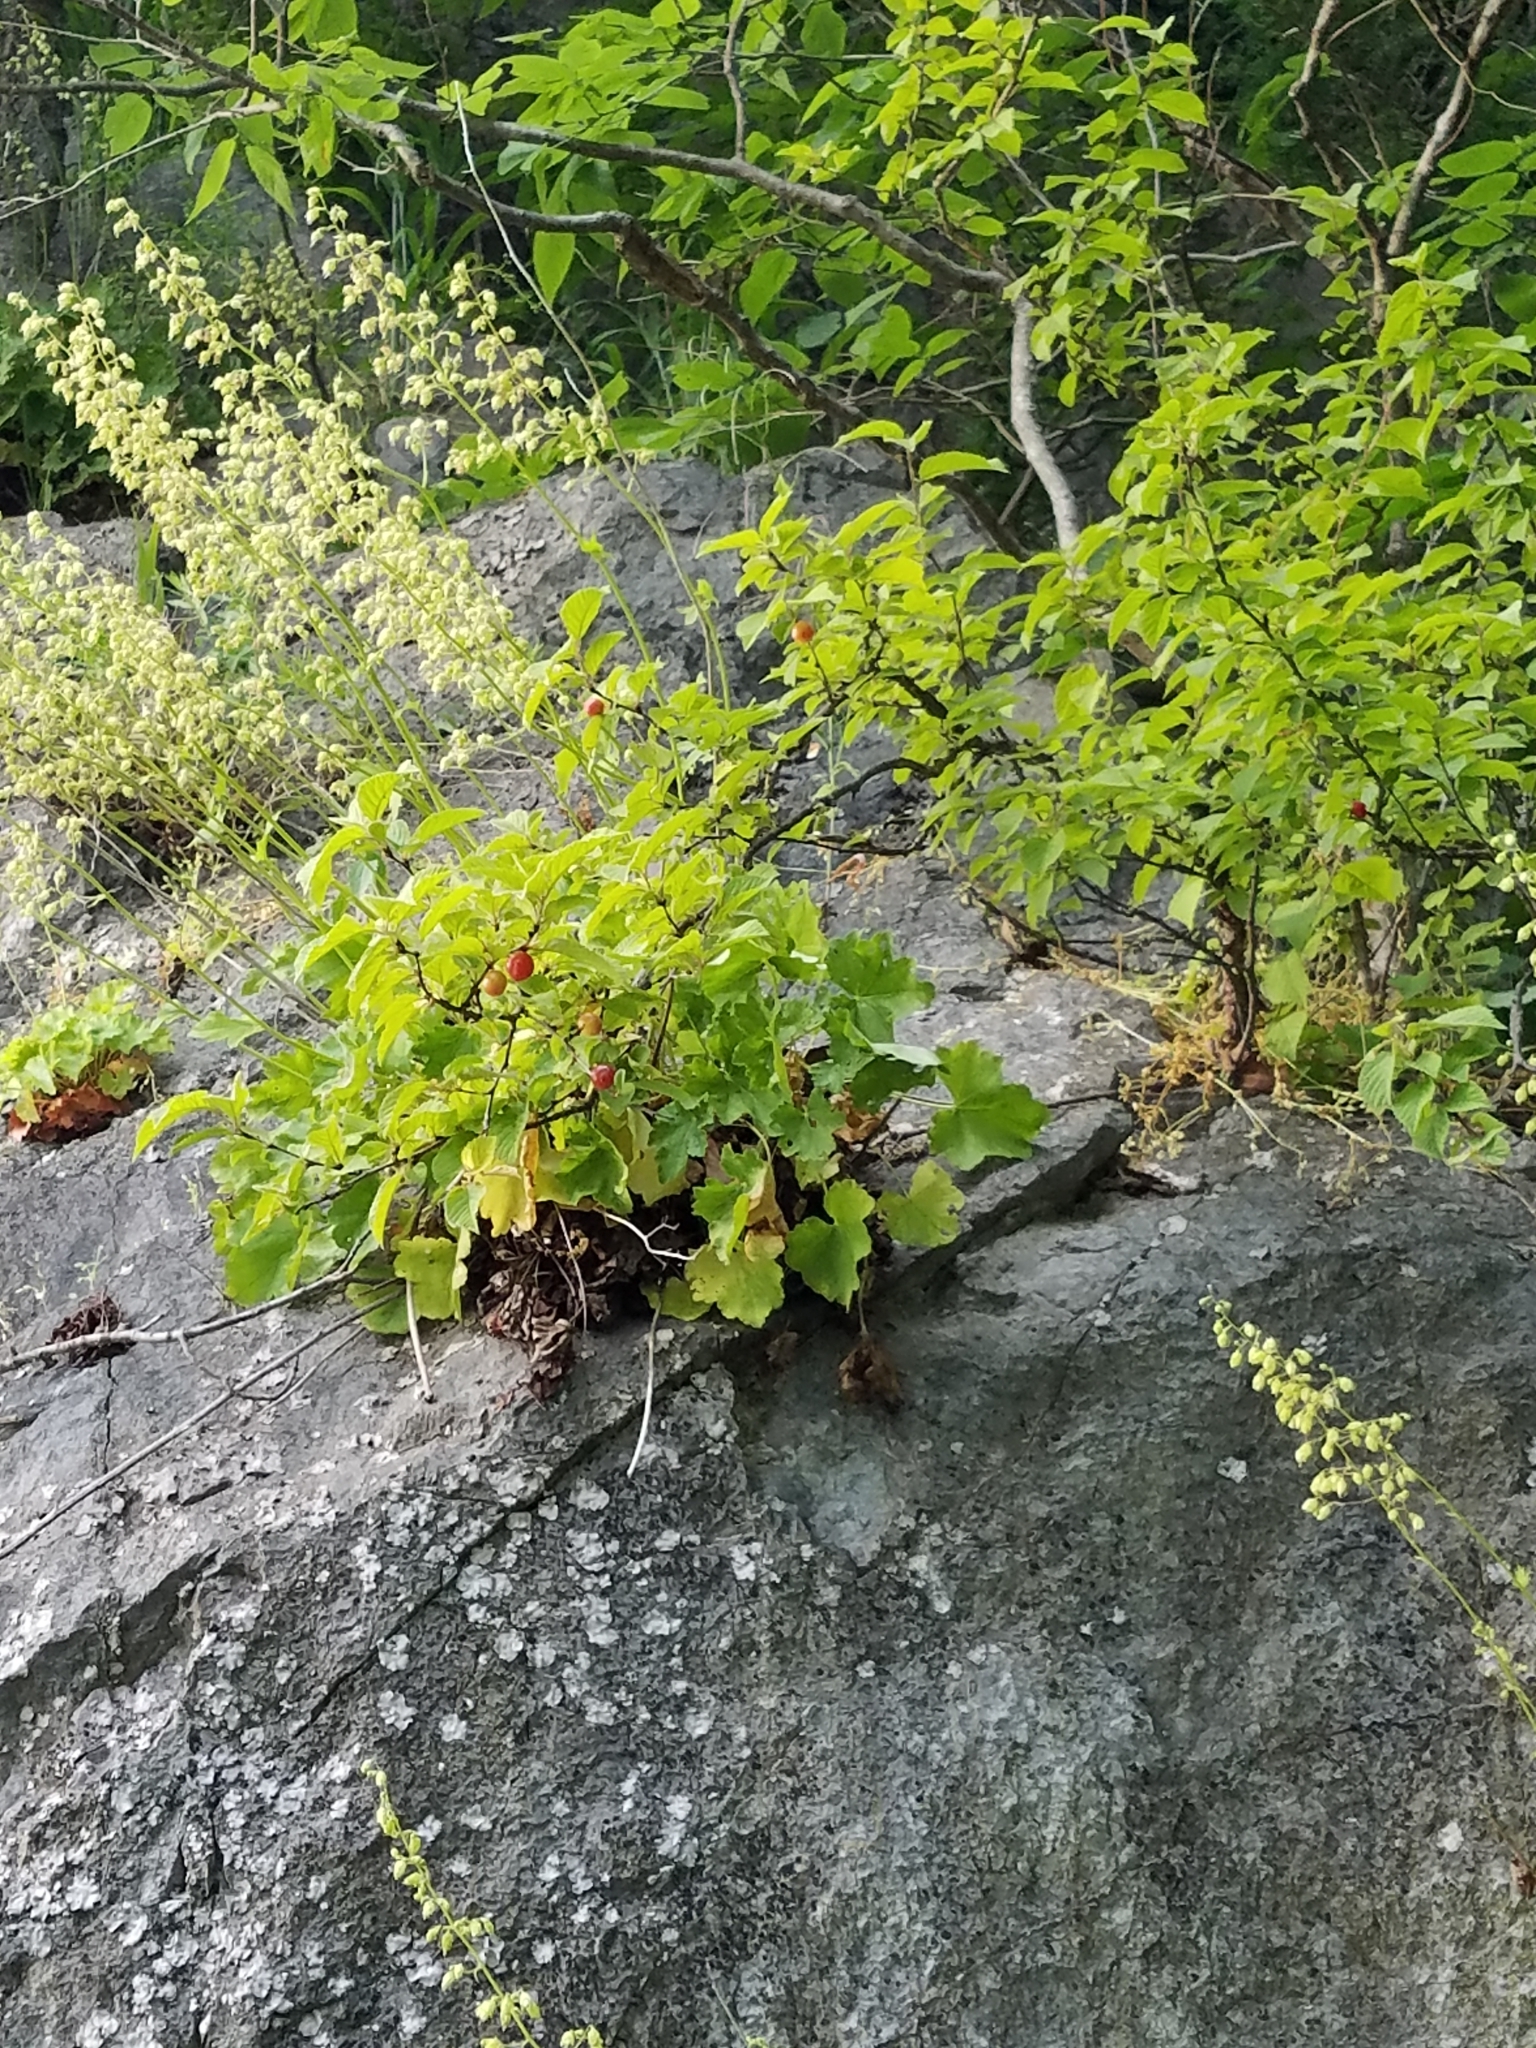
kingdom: Plantae
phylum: Tracheophyta
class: Magnoliopsida
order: Saxifragales
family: Saxifragaceae
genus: Heuchera
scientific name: Heuchera alba
